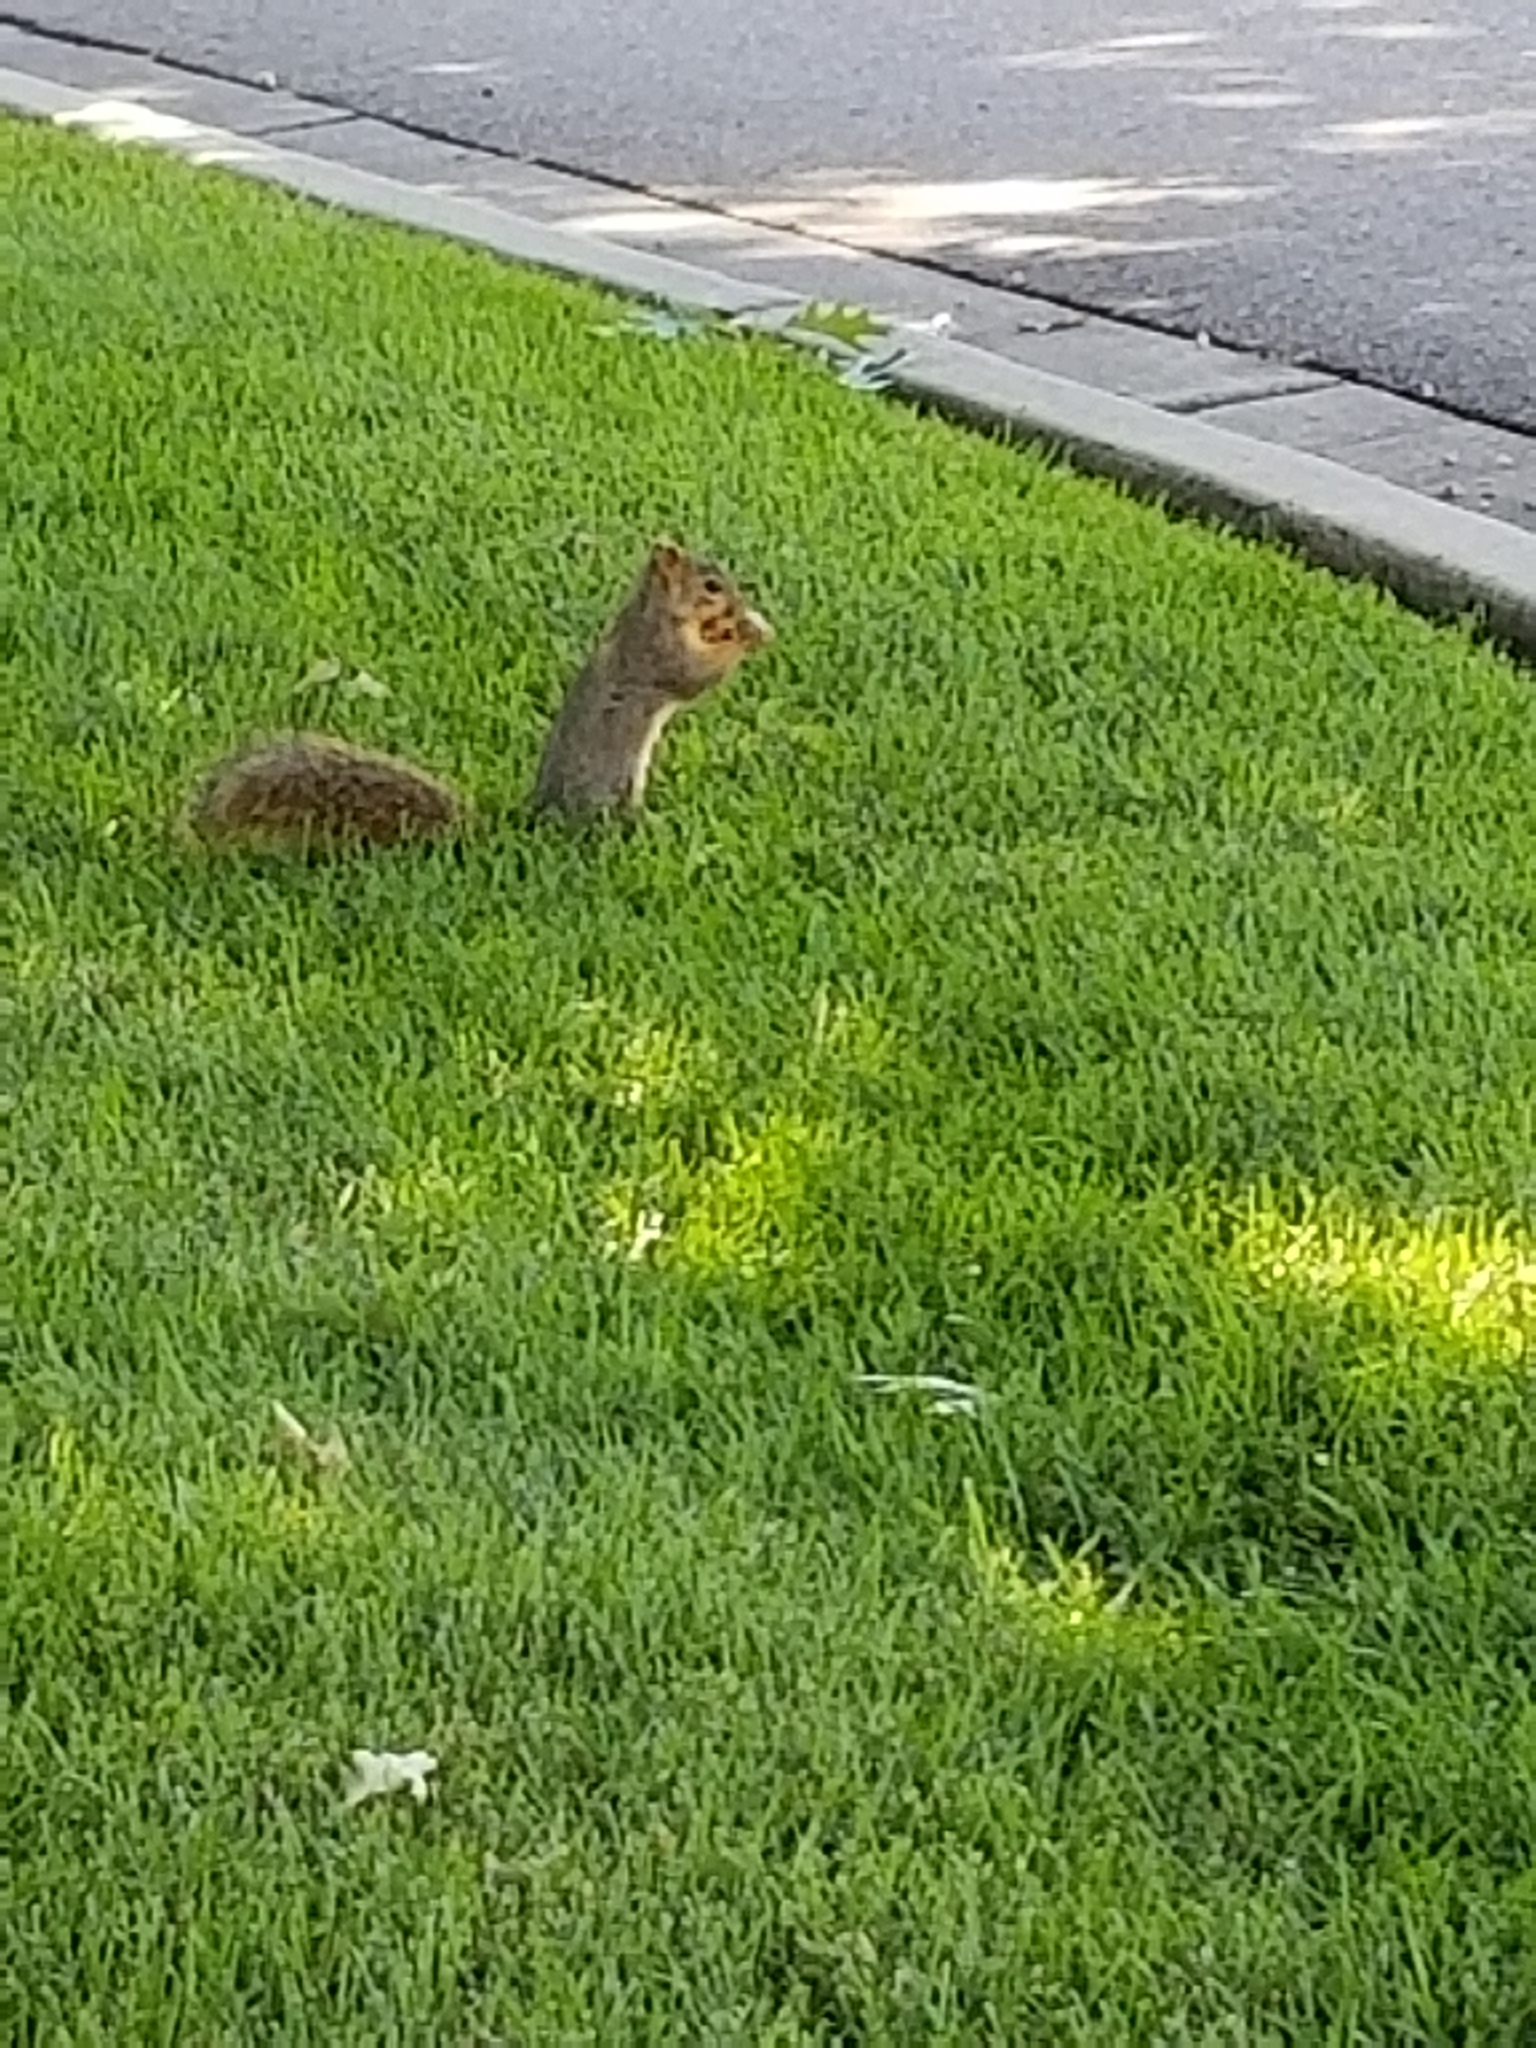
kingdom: Animalia
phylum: Chordata
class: Mammalia
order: Rodentia
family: Sciuridae
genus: Sciurus
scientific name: Sciurus niger
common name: Fox squirrel
